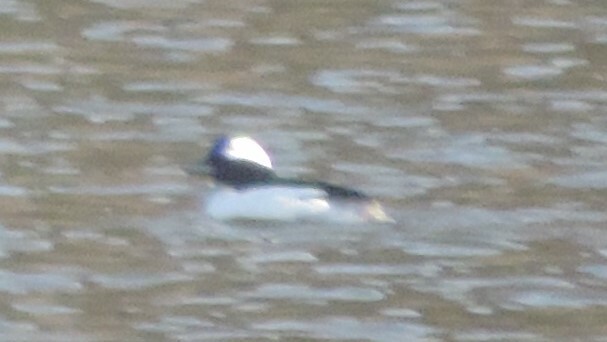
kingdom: Animalia
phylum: Chordata
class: Aves
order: Anseriformes
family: Anatidae
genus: Bucephala
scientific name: Bucephala albeola
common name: Bufflehead
